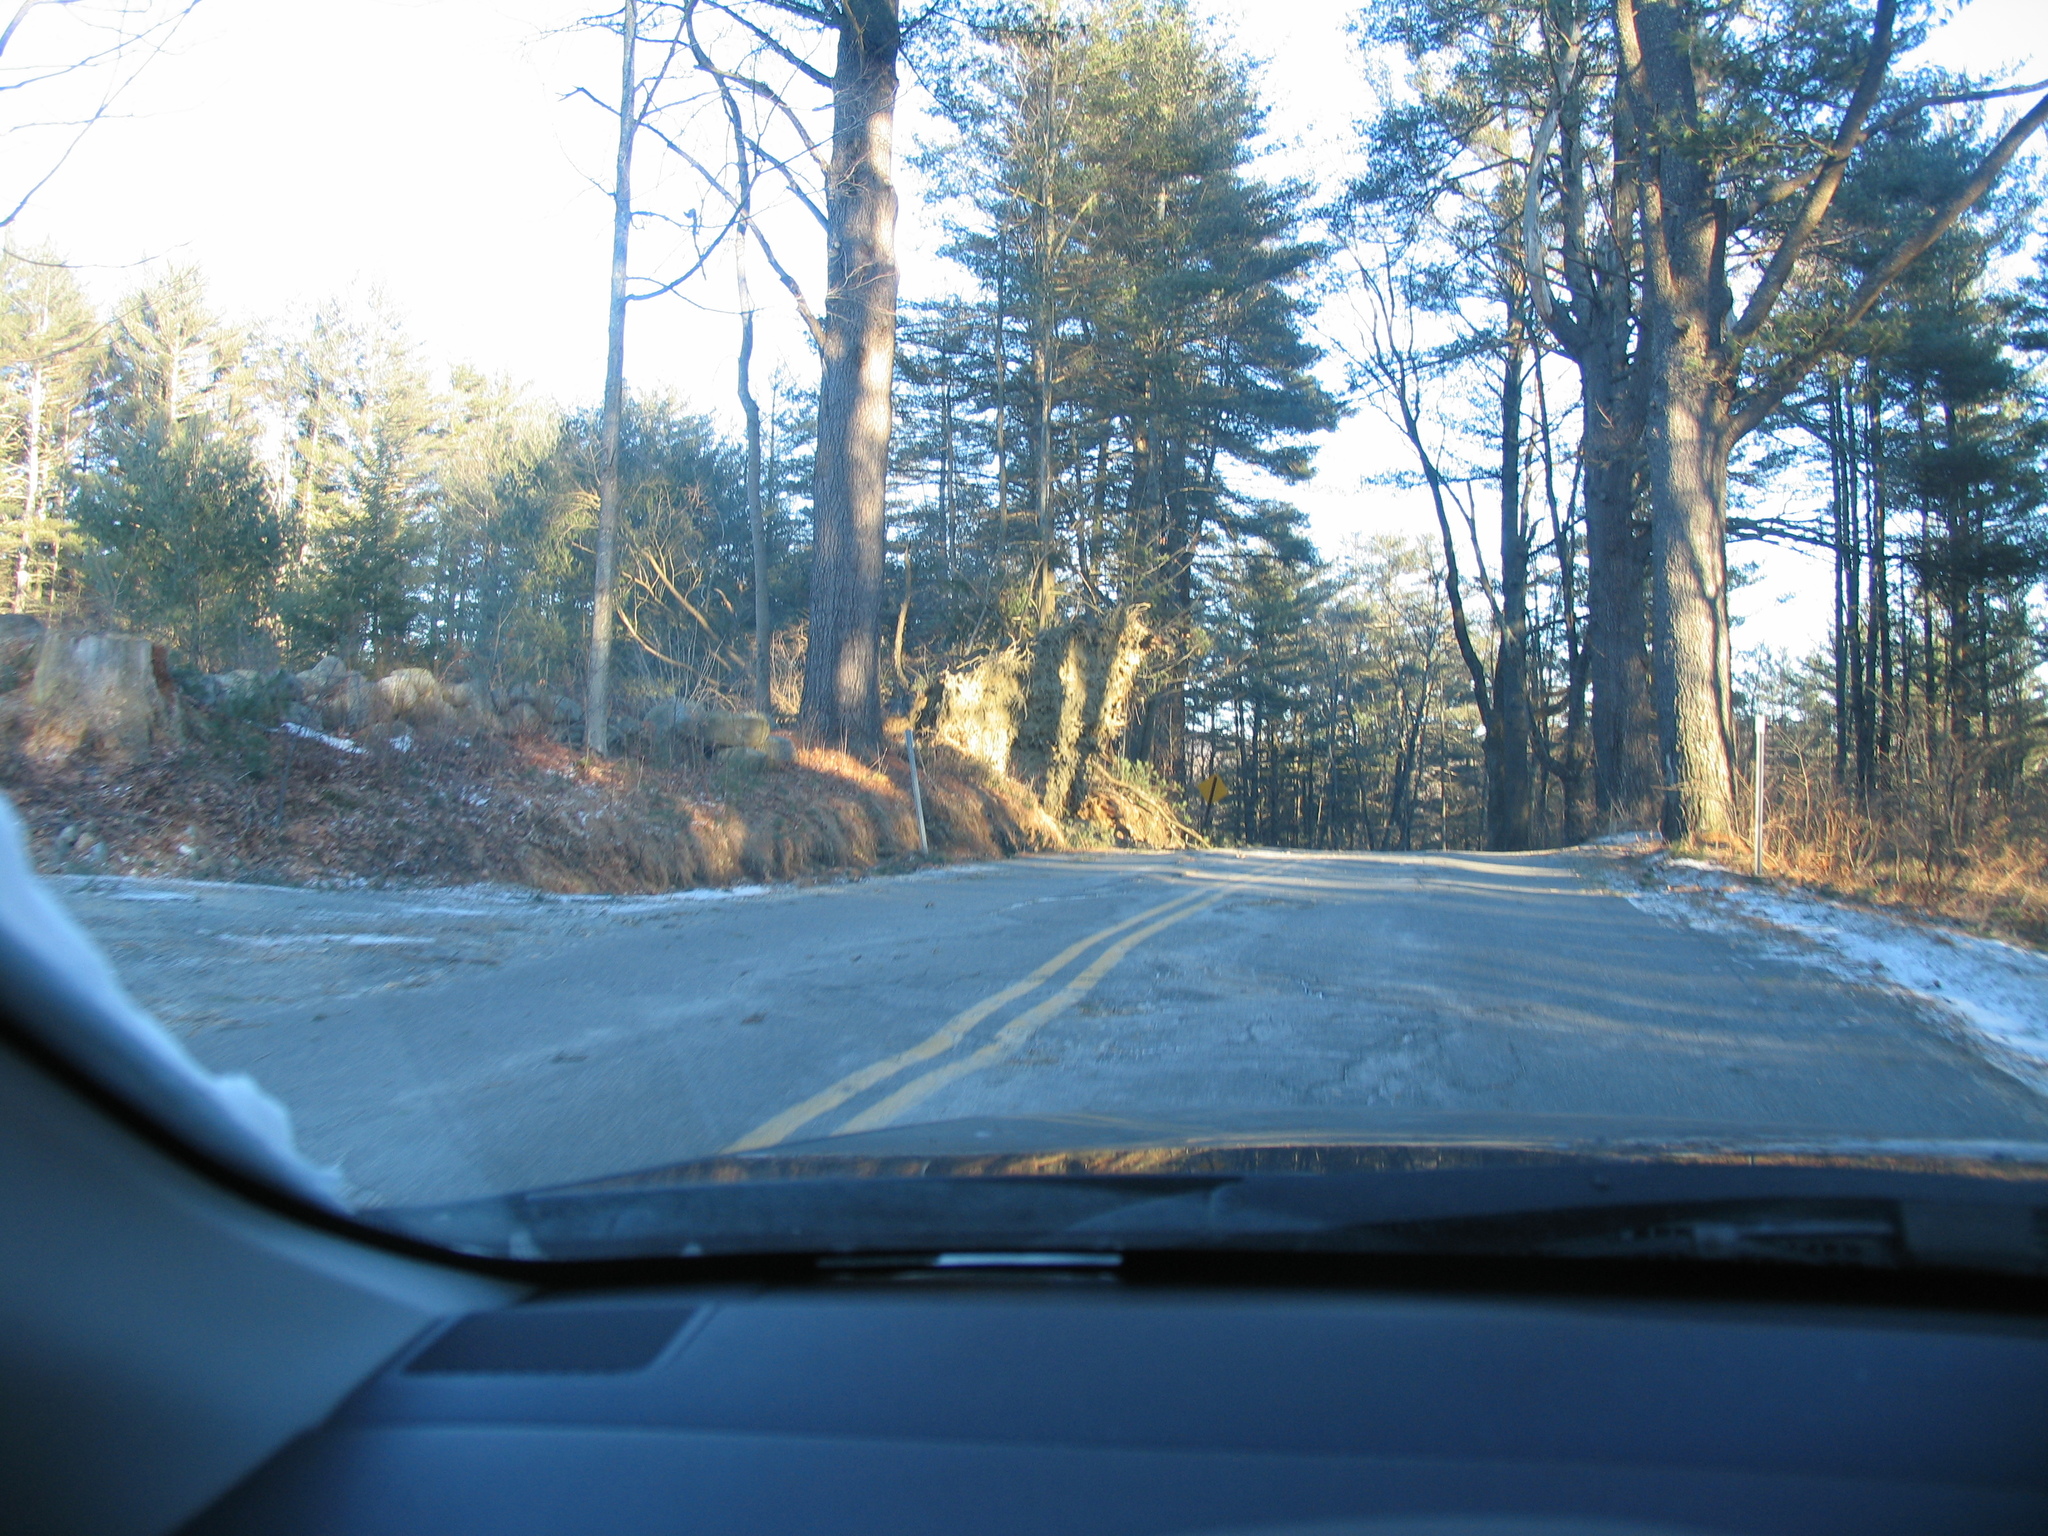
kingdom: Plantae
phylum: Tracheophyta
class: Pinopsida
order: Pinales
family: Pinaceae
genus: Pinus
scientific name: Pinus strobus
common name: Weymouth pine
